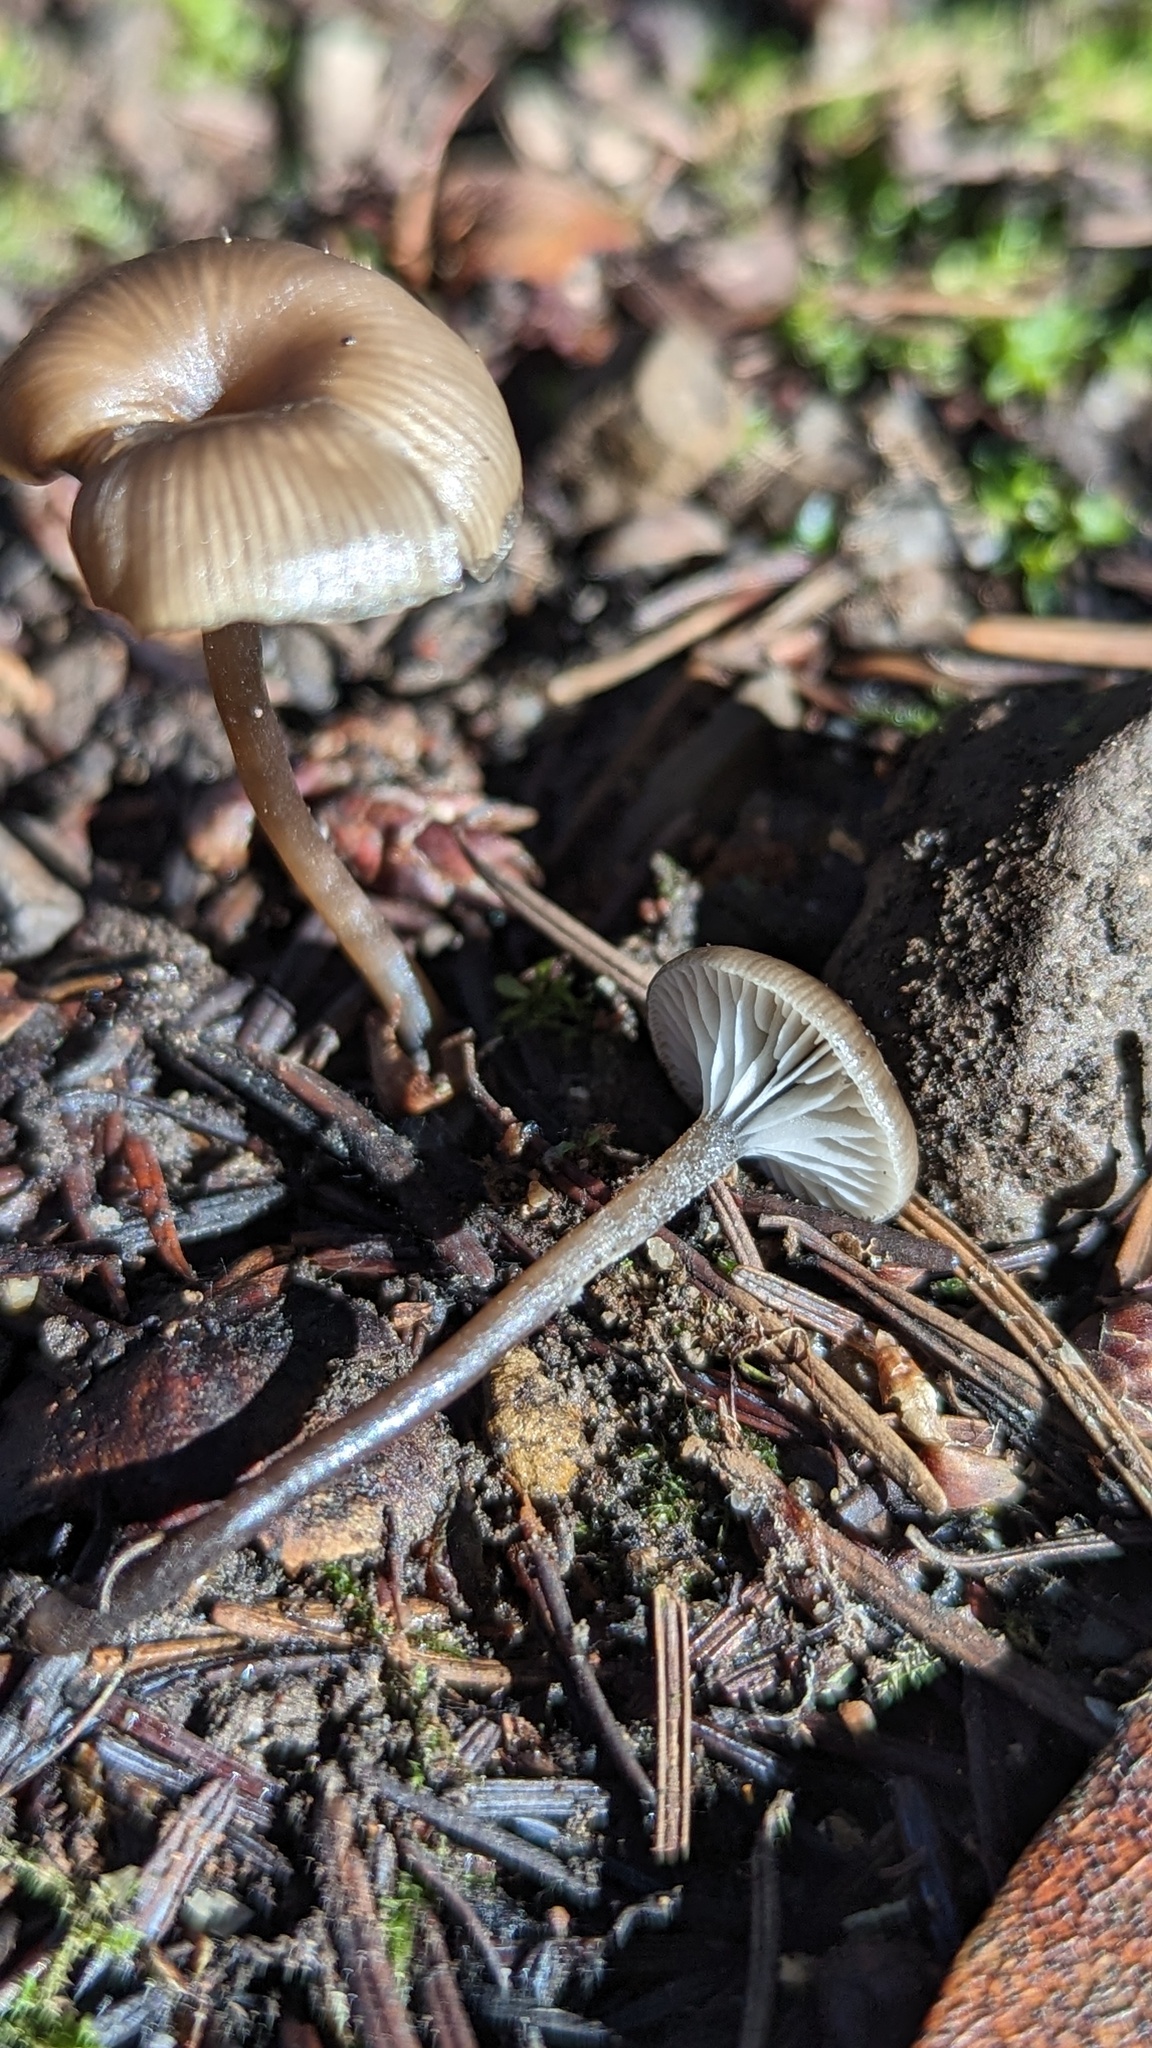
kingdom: Fungi
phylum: Basidiomycota
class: Agaricomycetes
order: Agaricales
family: Tricholomataceae
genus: Myxomphalia
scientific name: Myxomphalia maura
